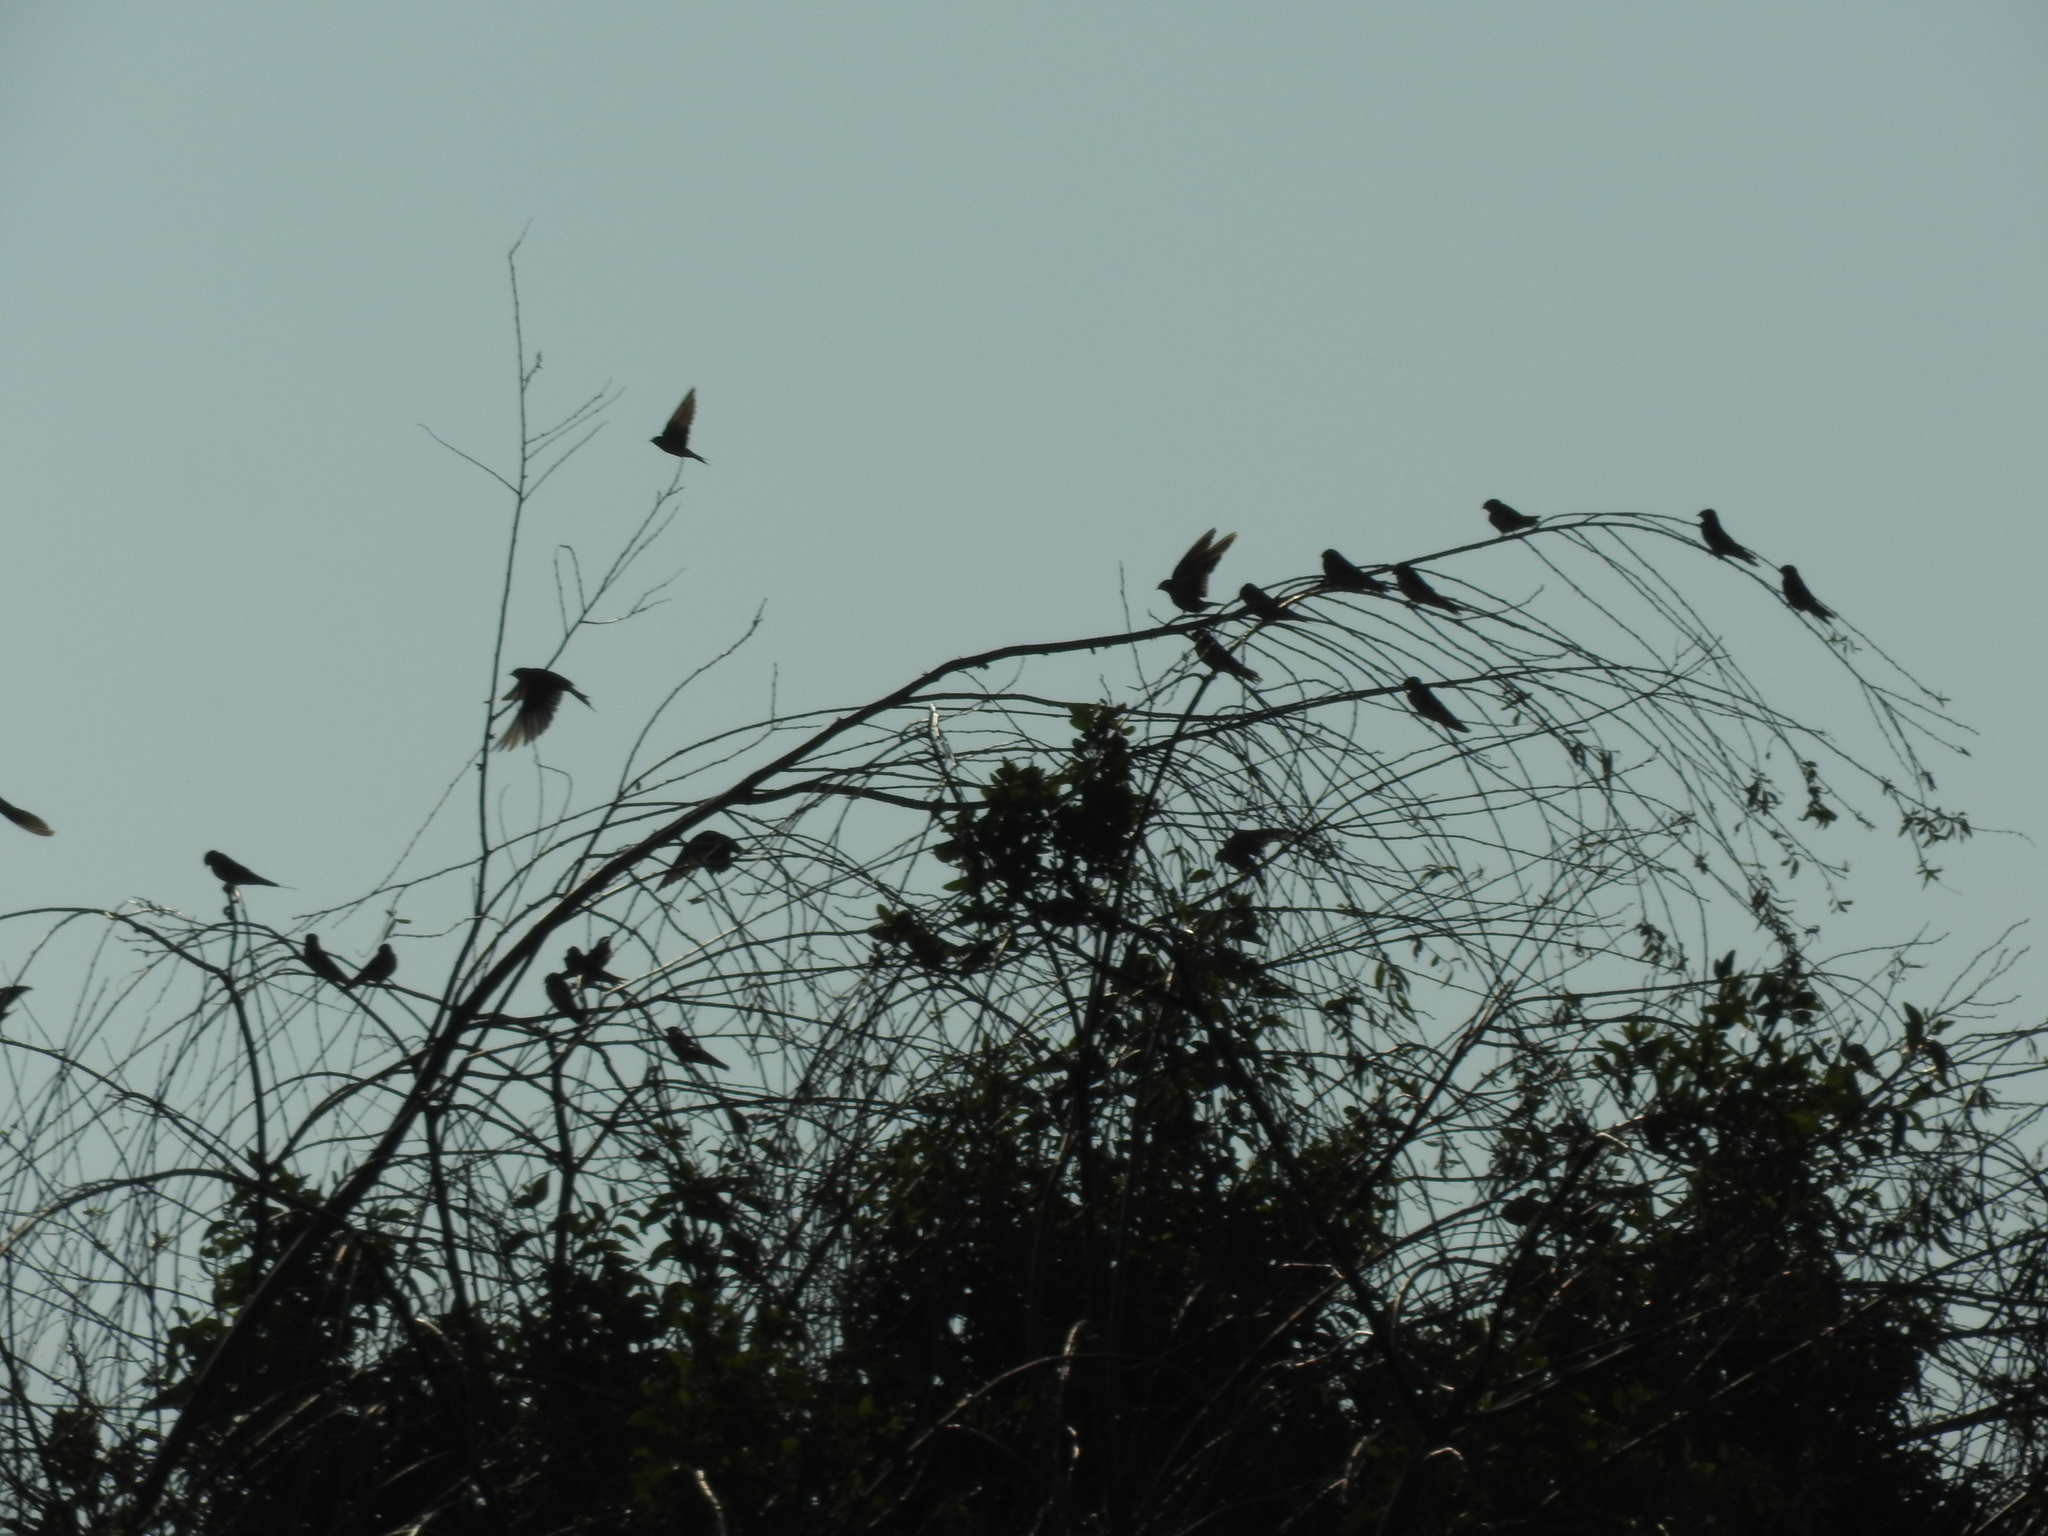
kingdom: Animalia
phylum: Chordata
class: Aves
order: Passeriformes
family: Hirundinidae
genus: Hirundo
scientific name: Hirundo rustica
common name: Barn swallow
